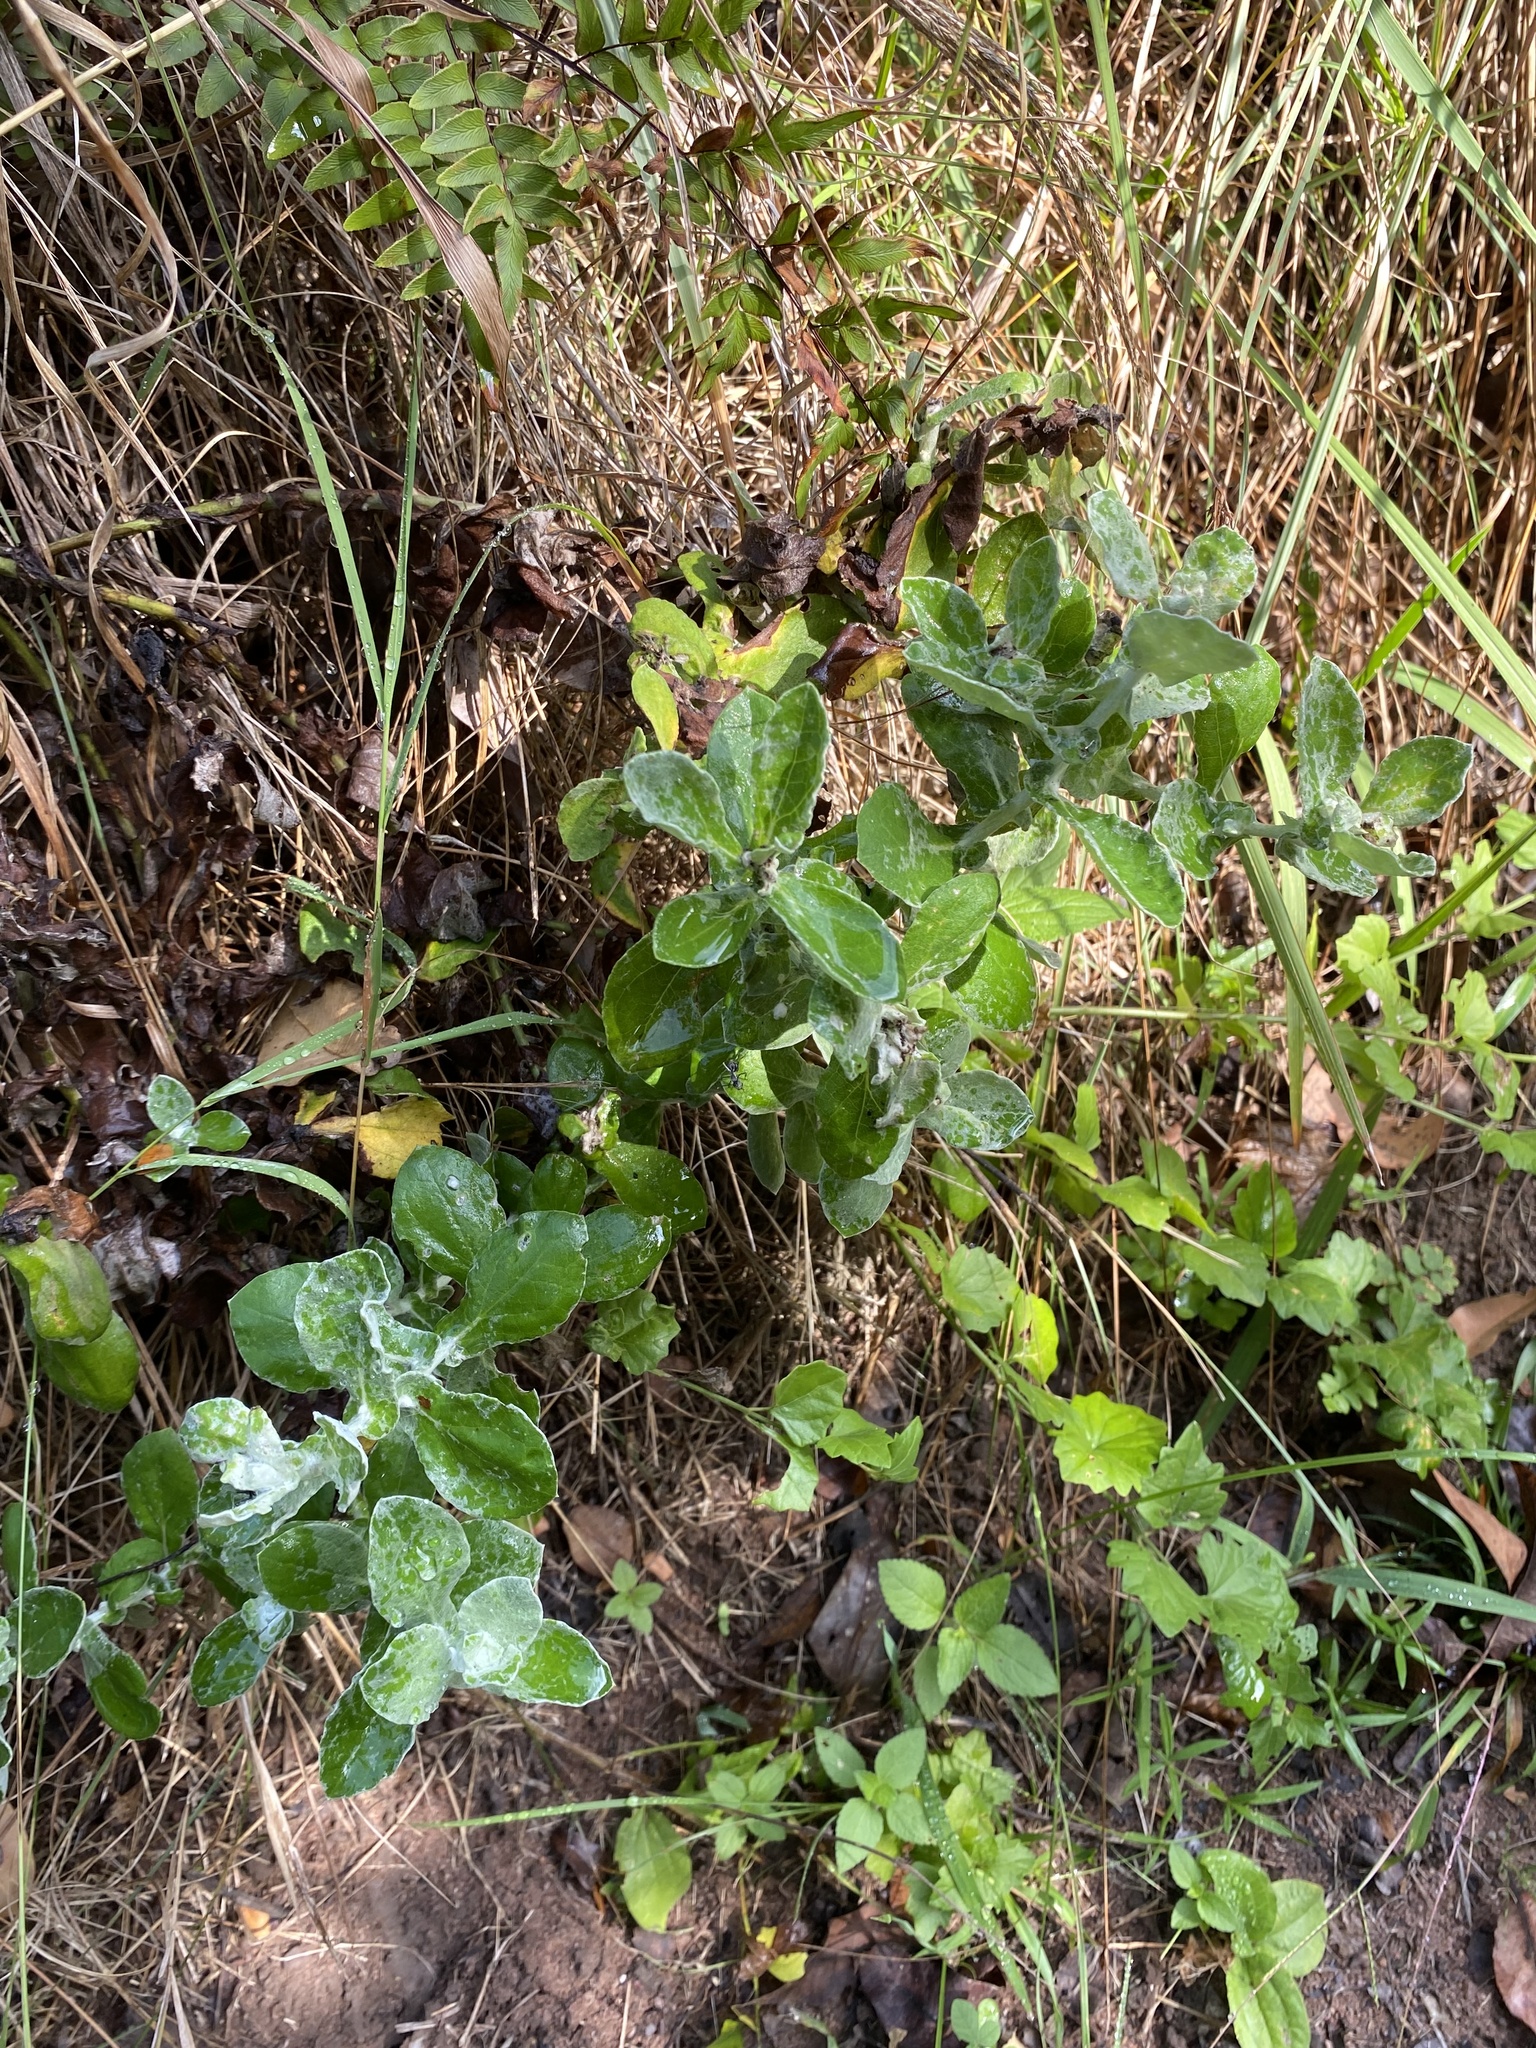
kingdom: Plantae
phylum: Tracheophyta
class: Magnoliopsida
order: Asterales
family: Asteraceae
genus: Helichrysum
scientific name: Helichrysum panduratum
